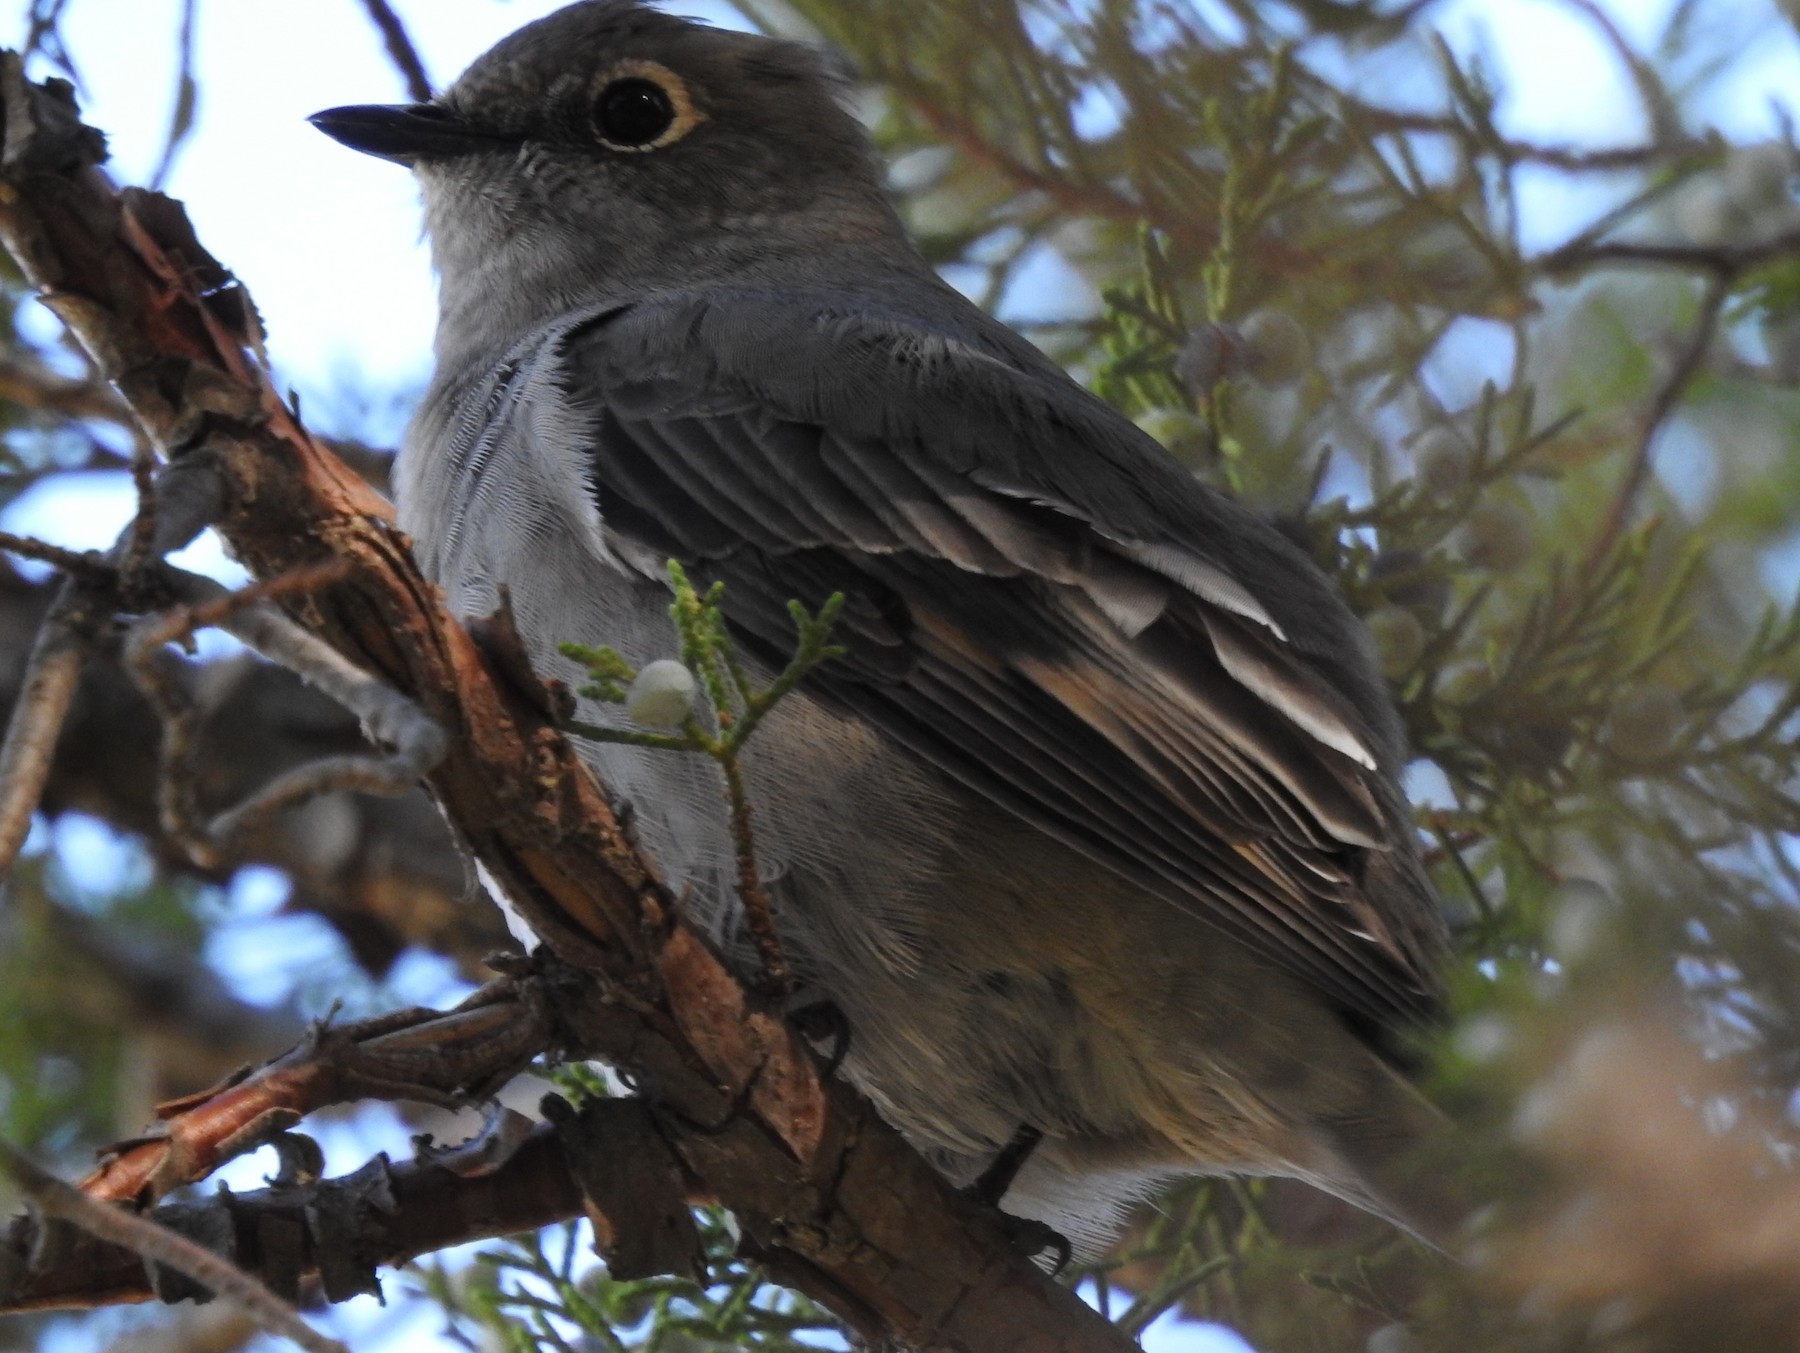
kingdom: Animalia
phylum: Chordata
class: Aves
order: Passeriformes
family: Turdidae
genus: Myadestes
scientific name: Myadestes townsendi
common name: Townsend's solitaire
